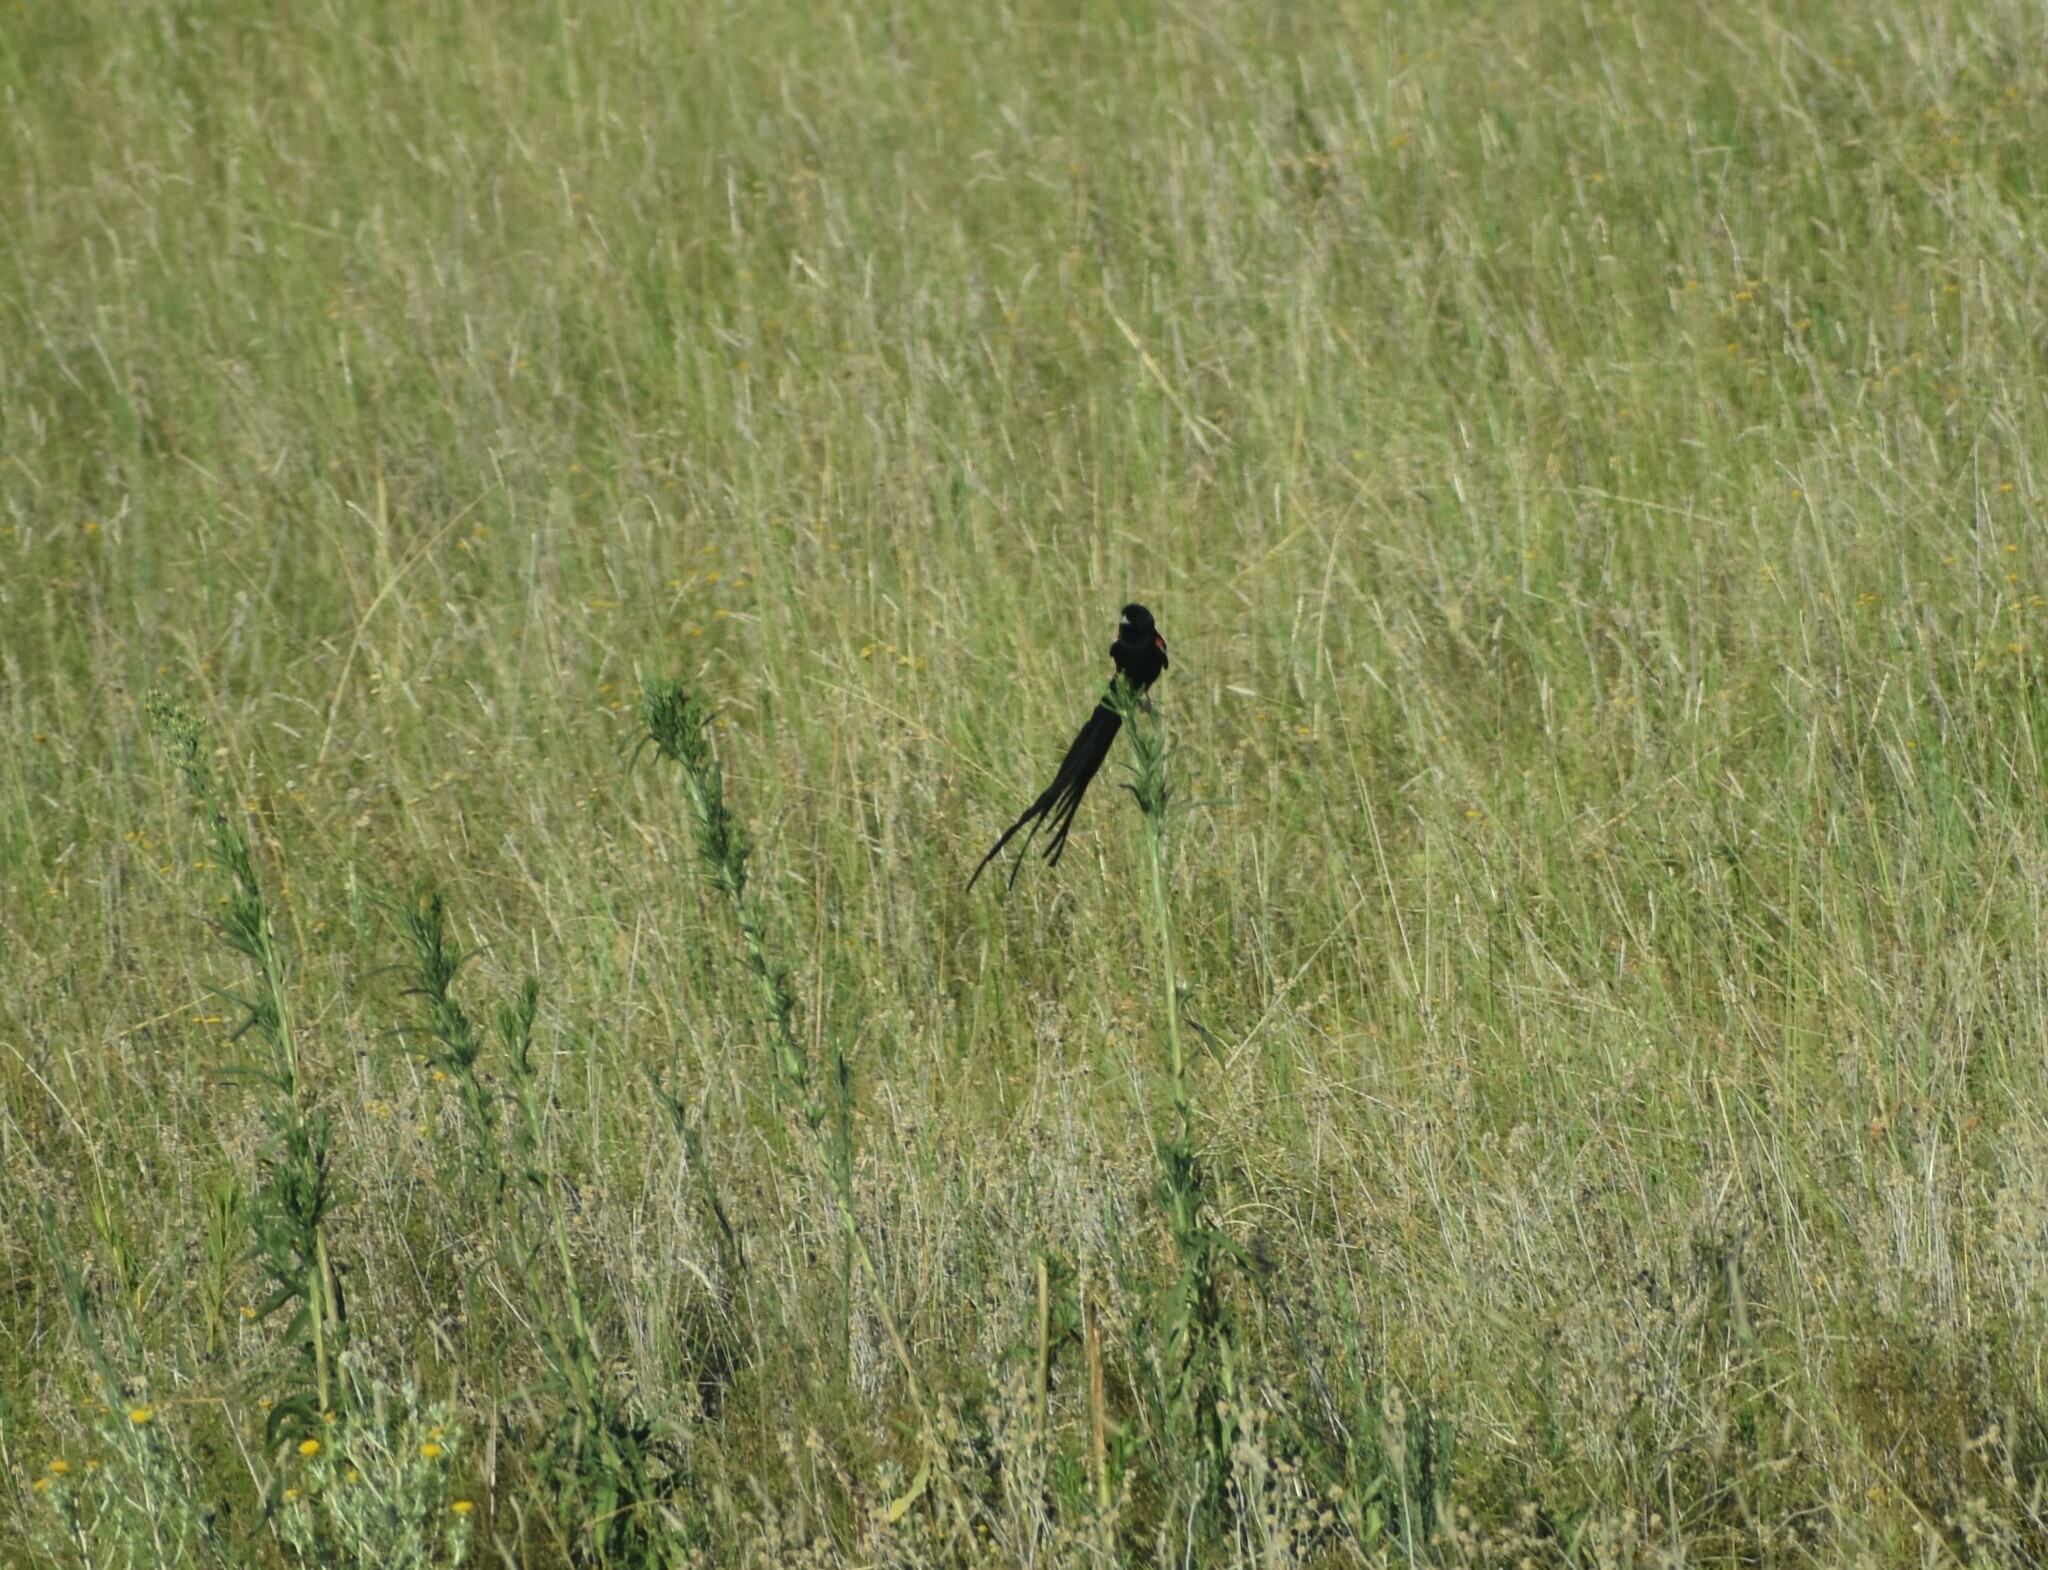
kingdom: Animalia
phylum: Chordata
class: Aves
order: Passeriformes
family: Ploceidae
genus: Euplectes
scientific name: Euplectes progne
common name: Long-tailed widowbird
